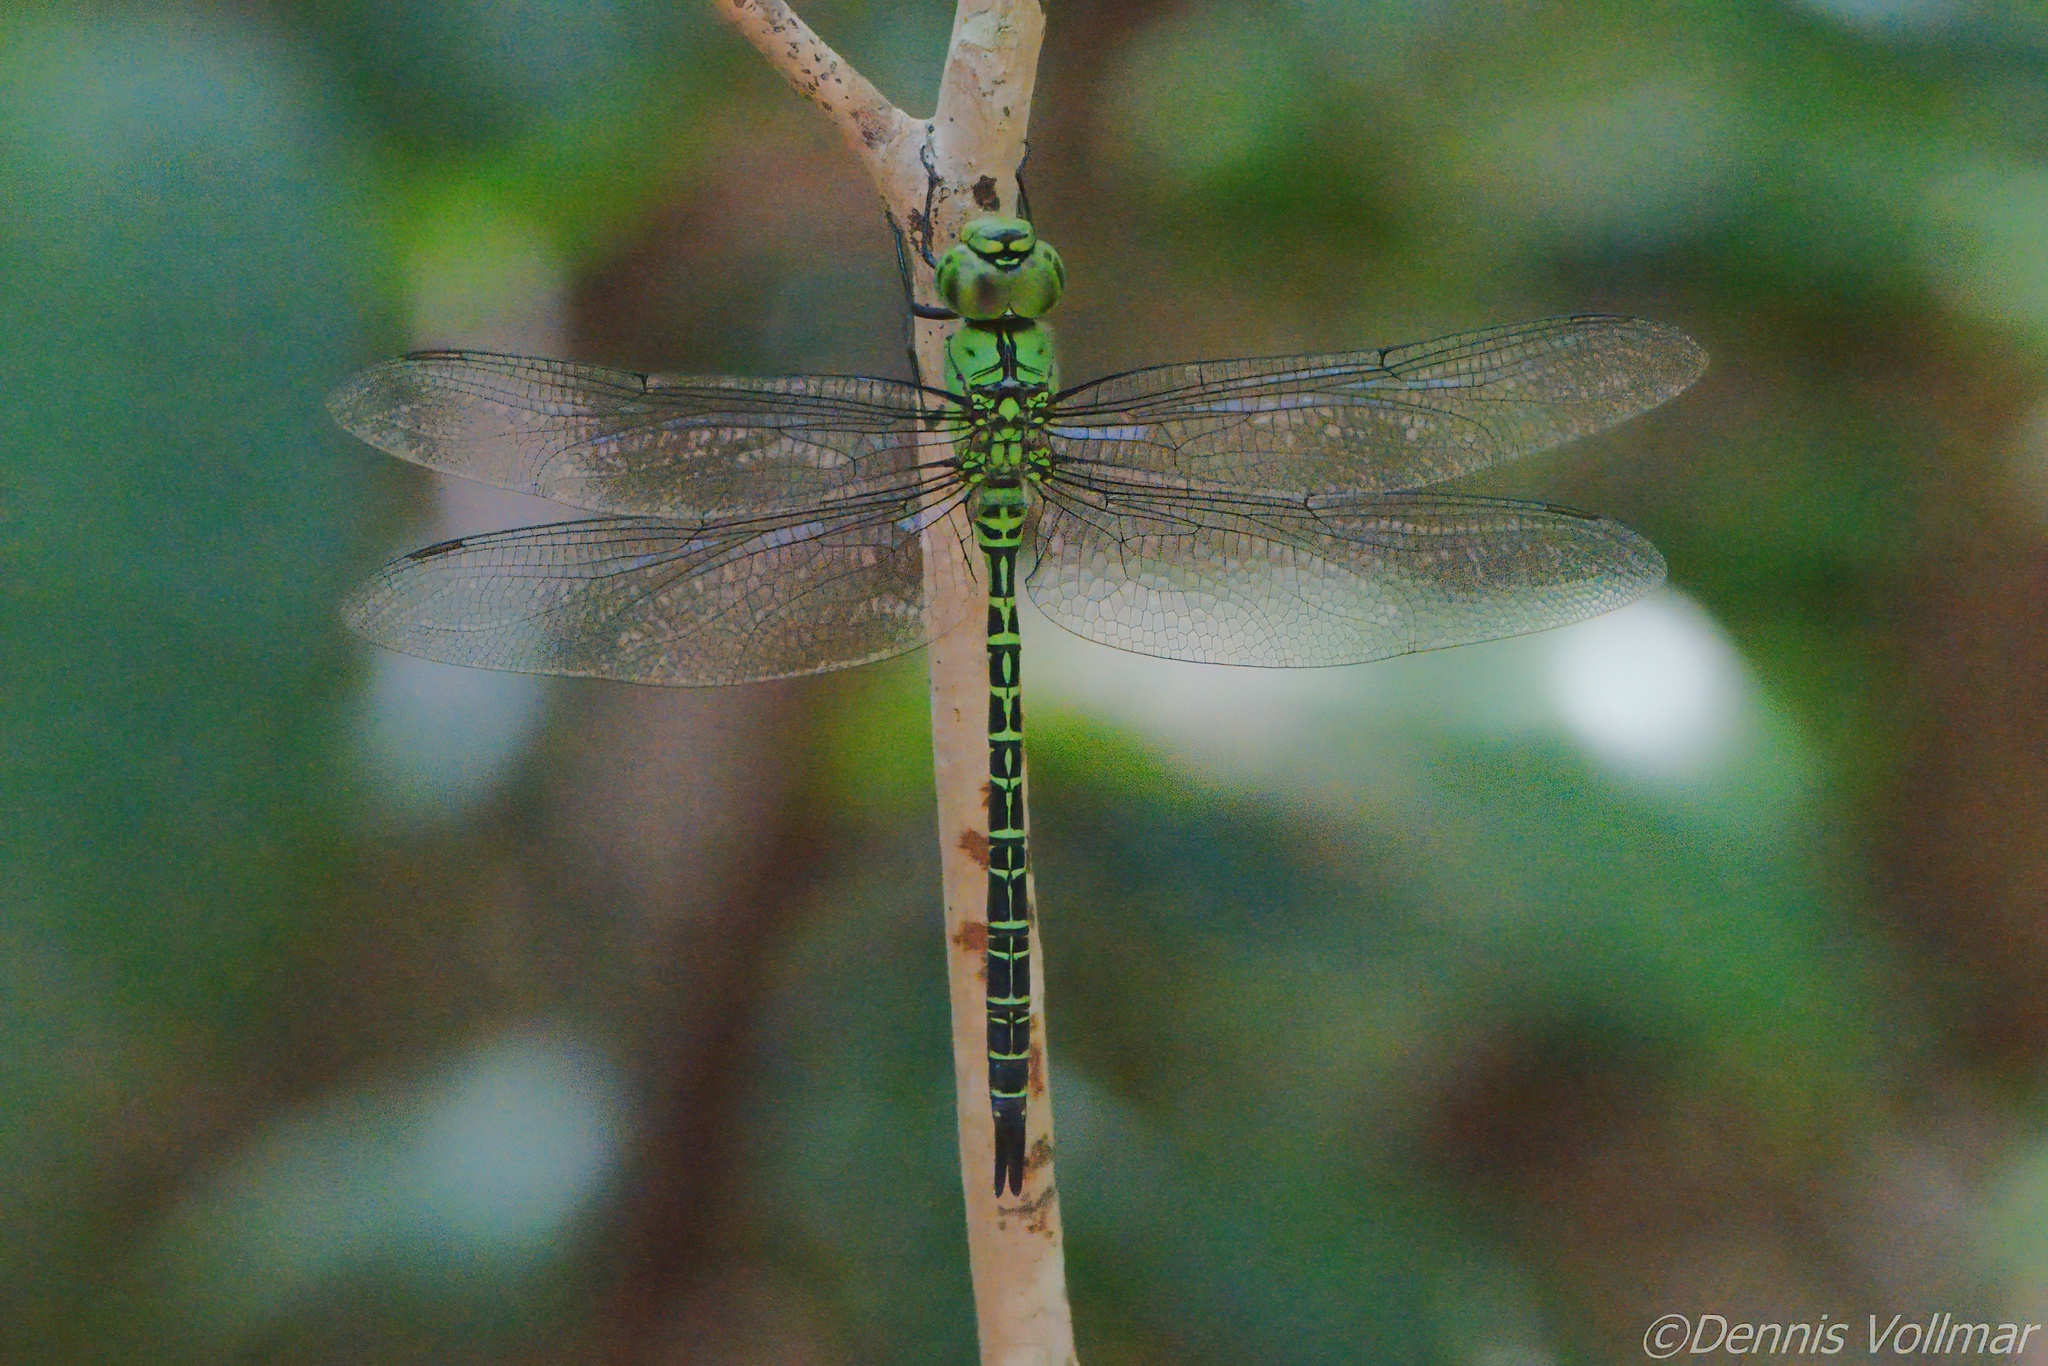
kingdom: Animalia
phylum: Arthropoda
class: Insecta
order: Odonata
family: Aeshnidae
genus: Coryphaeschna
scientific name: Coryphaeschna viriditas
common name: Mangrove darner
